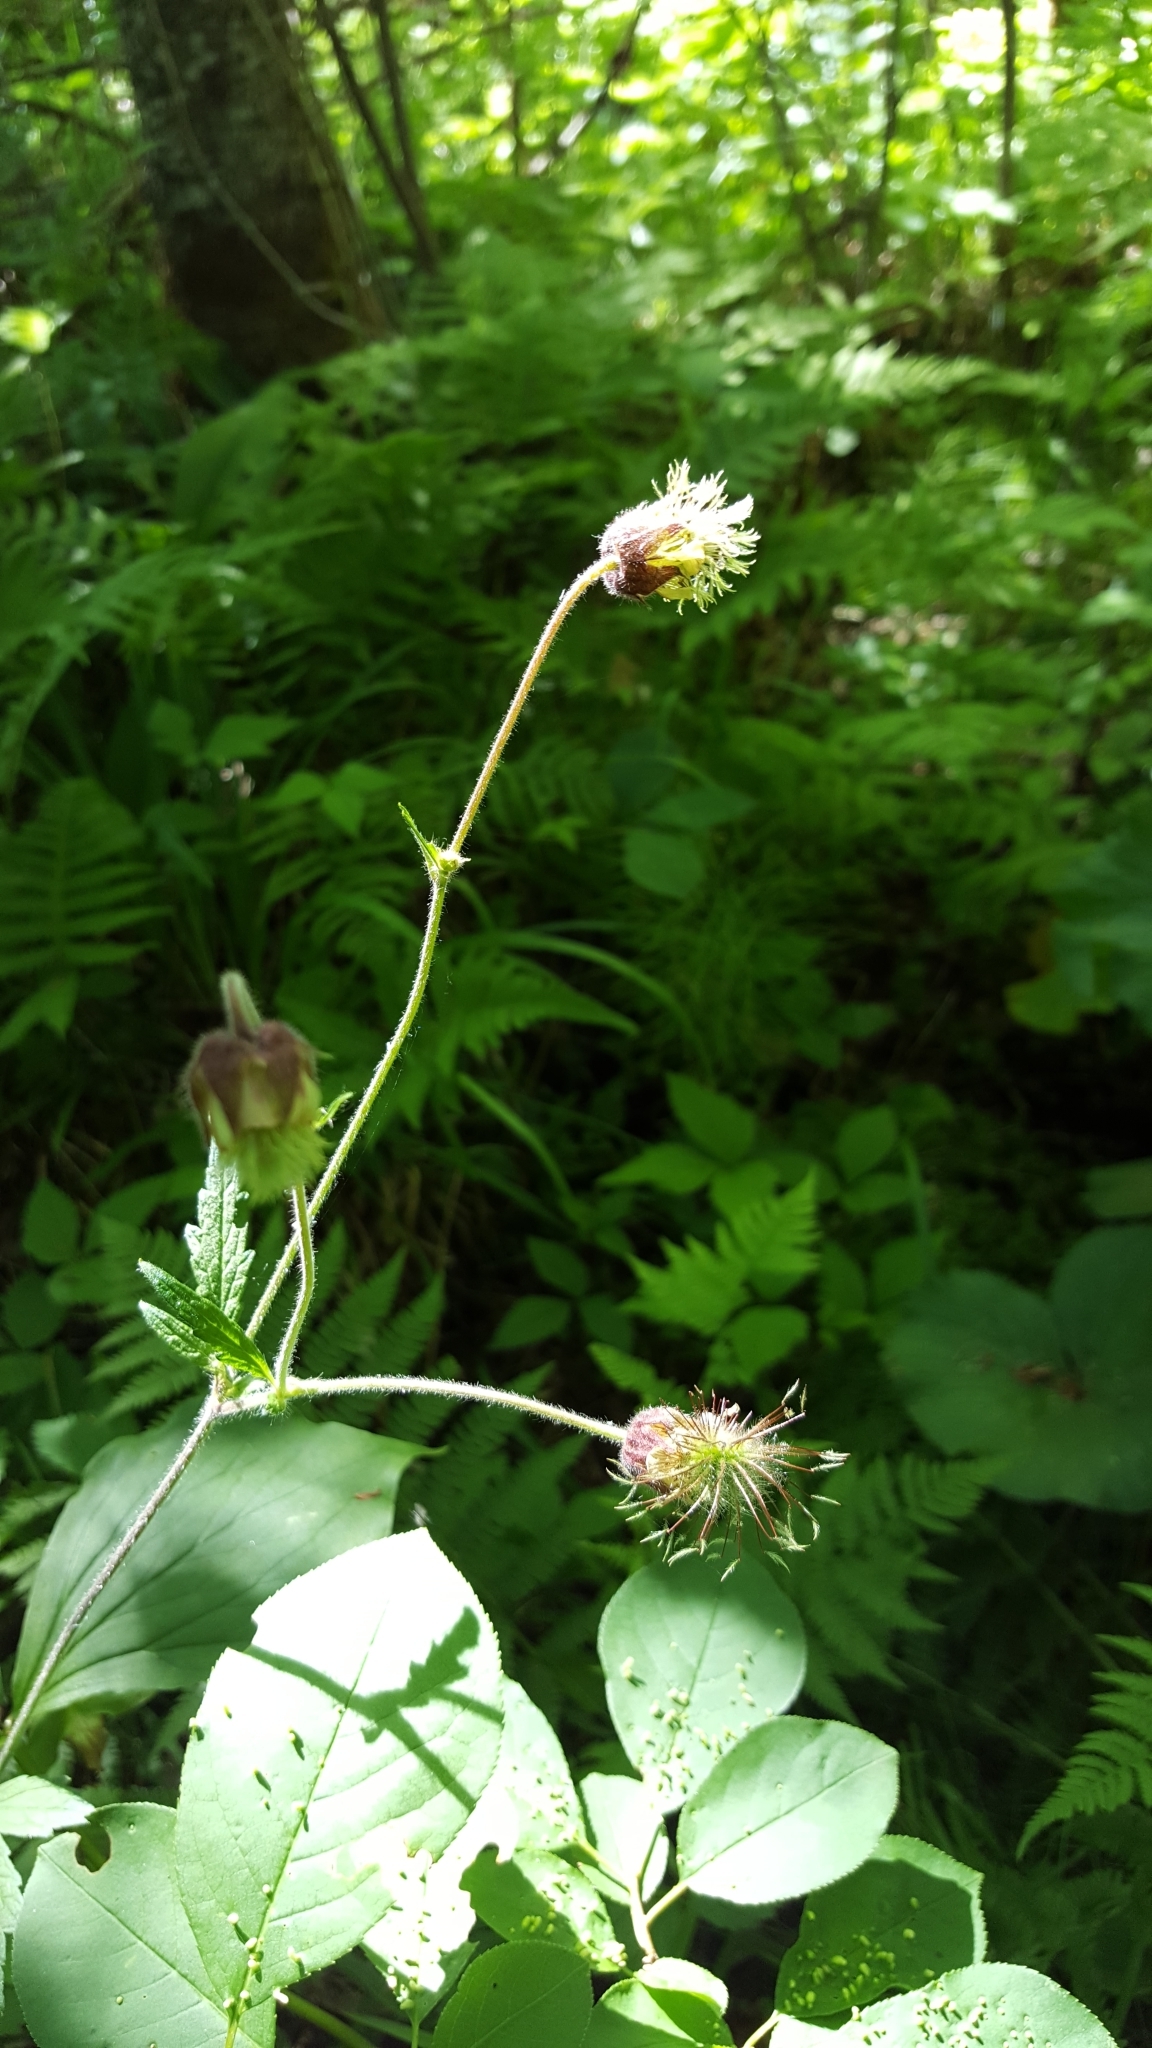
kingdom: Plantae
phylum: Tracheophyta
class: Magnoliopsida
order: Rosales
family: Rosaceae
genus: Geum
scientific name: Geum rivale
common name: Water avens
